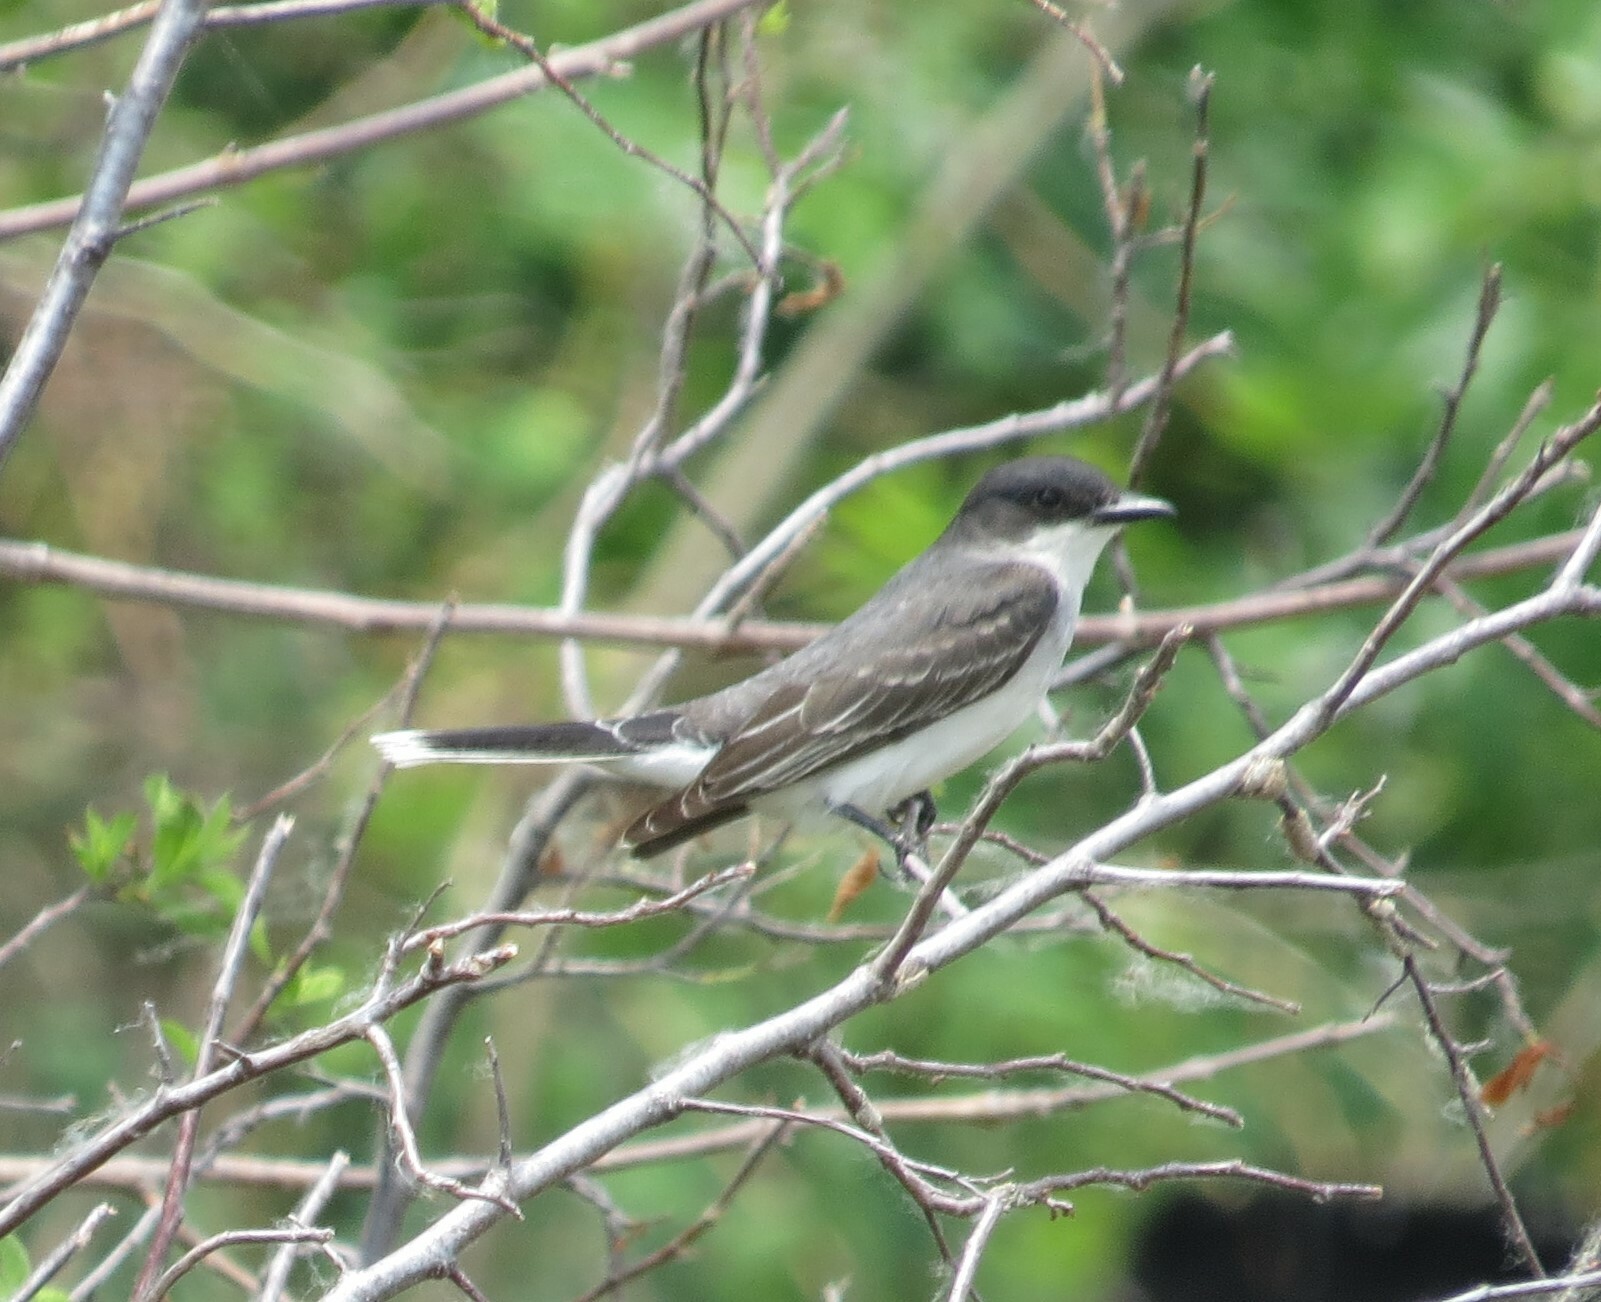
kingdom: Animalia
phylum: Chordata
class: Aves
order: Passeriformes
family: Tyrannidae
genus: Tyrannus
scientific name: Tyrannus tyrannus
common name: Eastern kingbird
